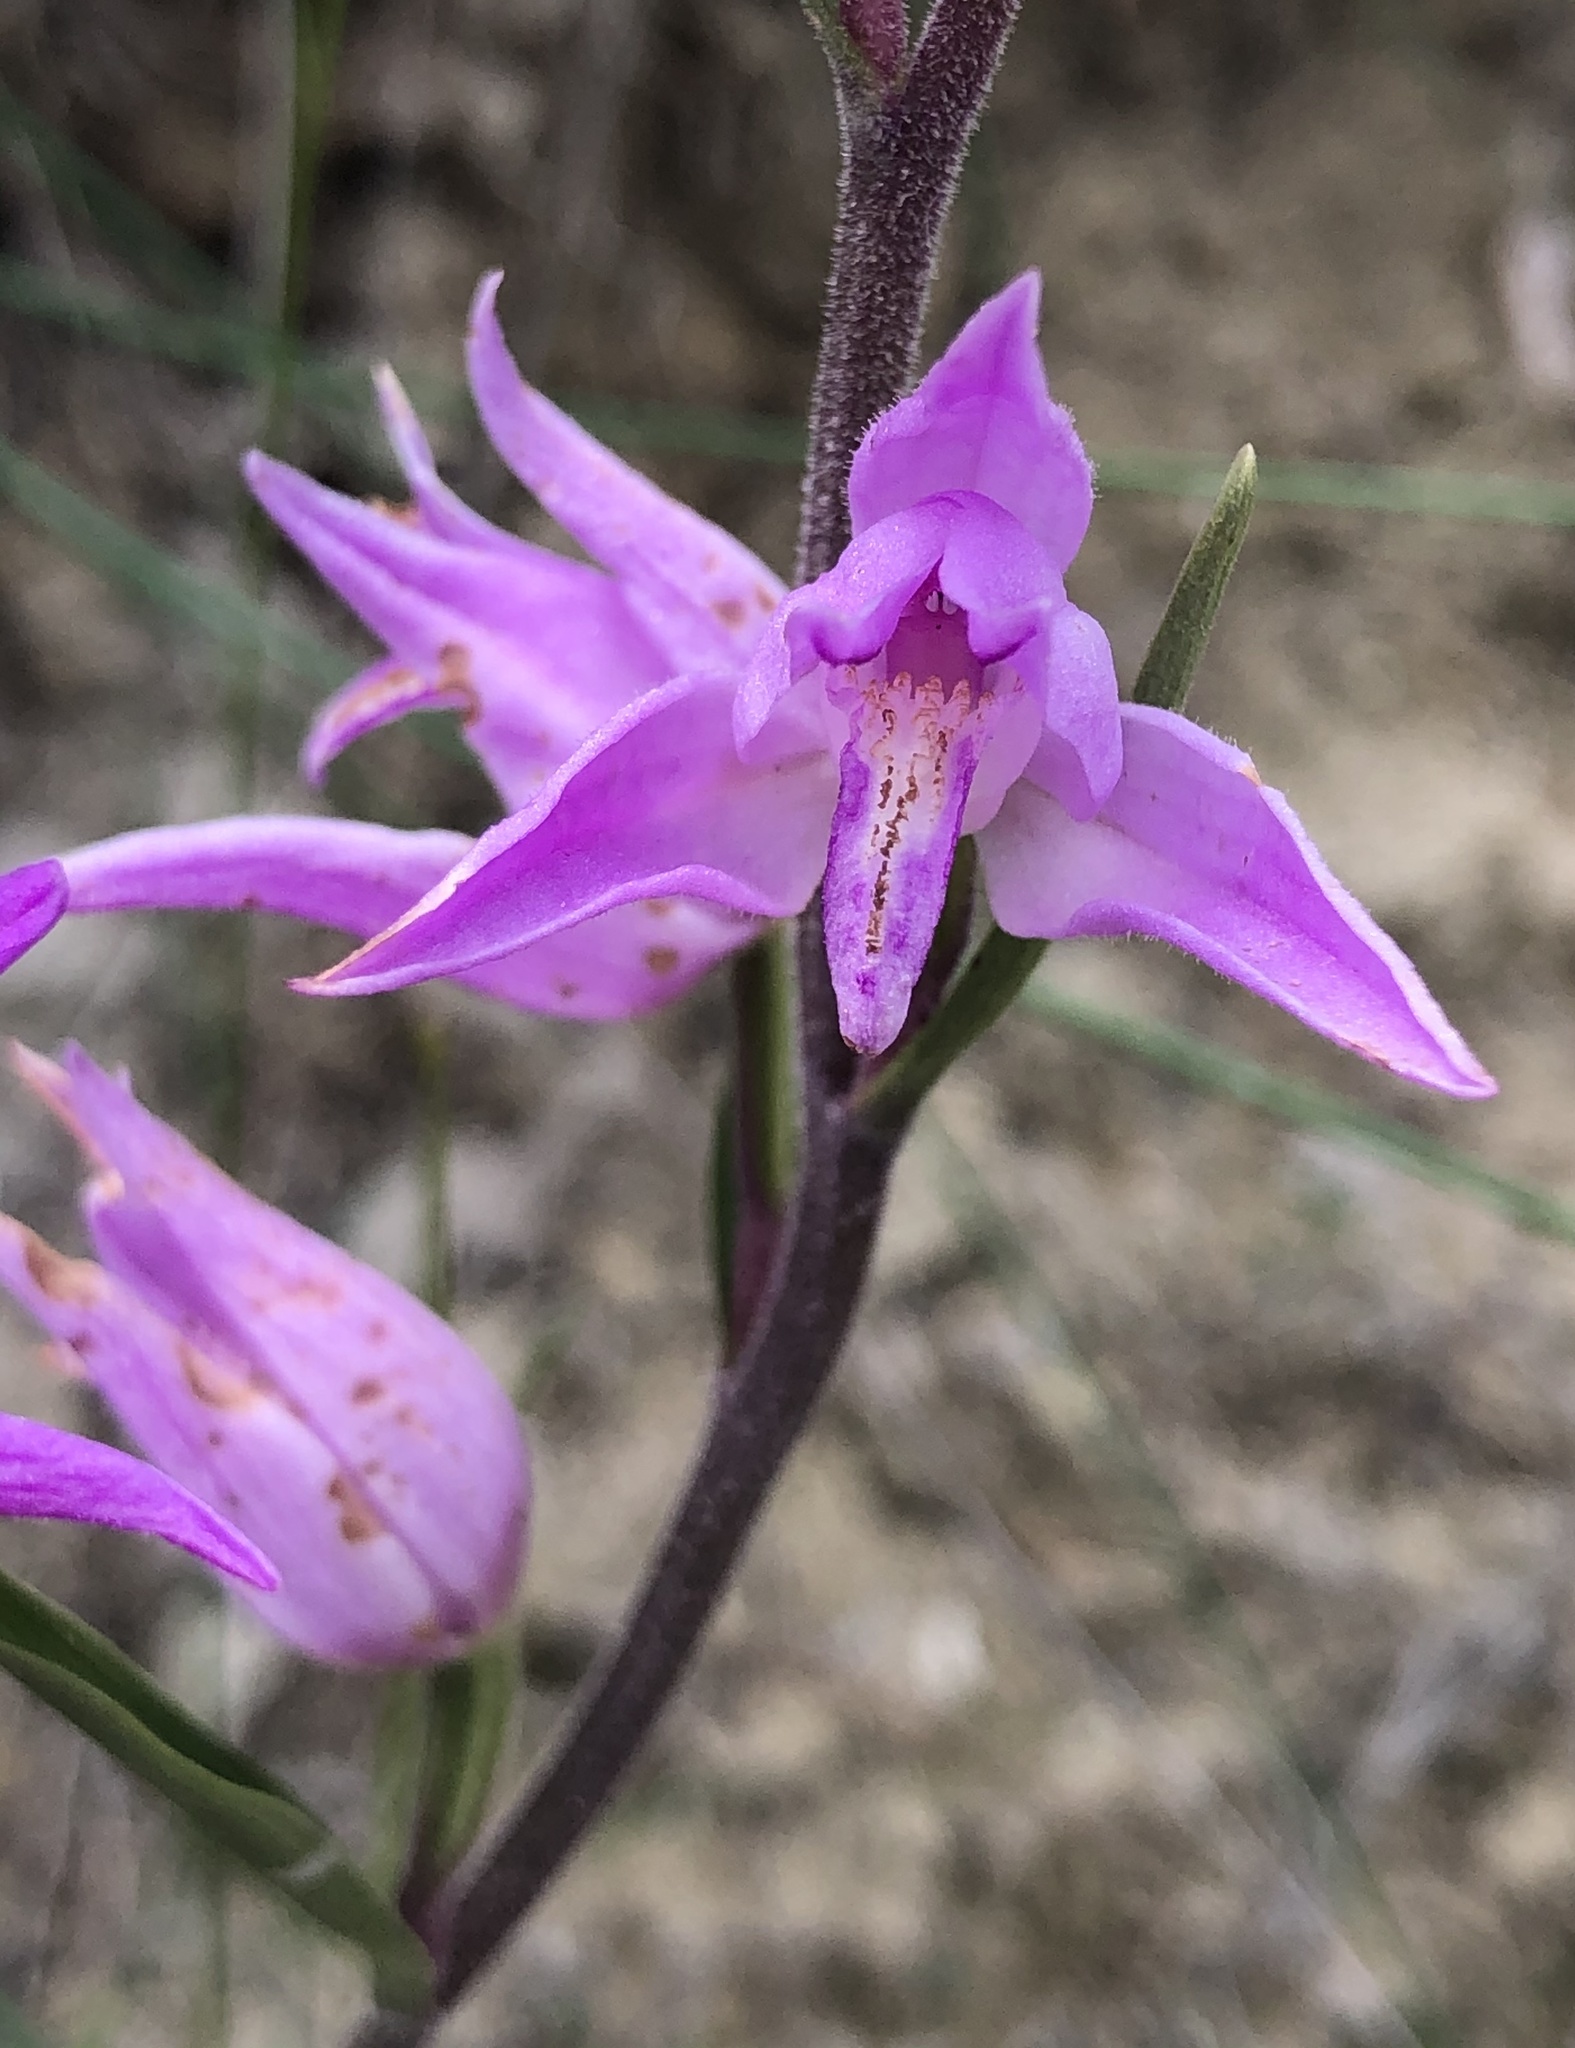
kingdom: Plantae
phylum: Tracheophyta
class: Liliopsida
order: Asparagales
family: Orchidaceae
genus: Cephalanthera
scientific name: Cephalanthera rubra
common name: Red helleborine
